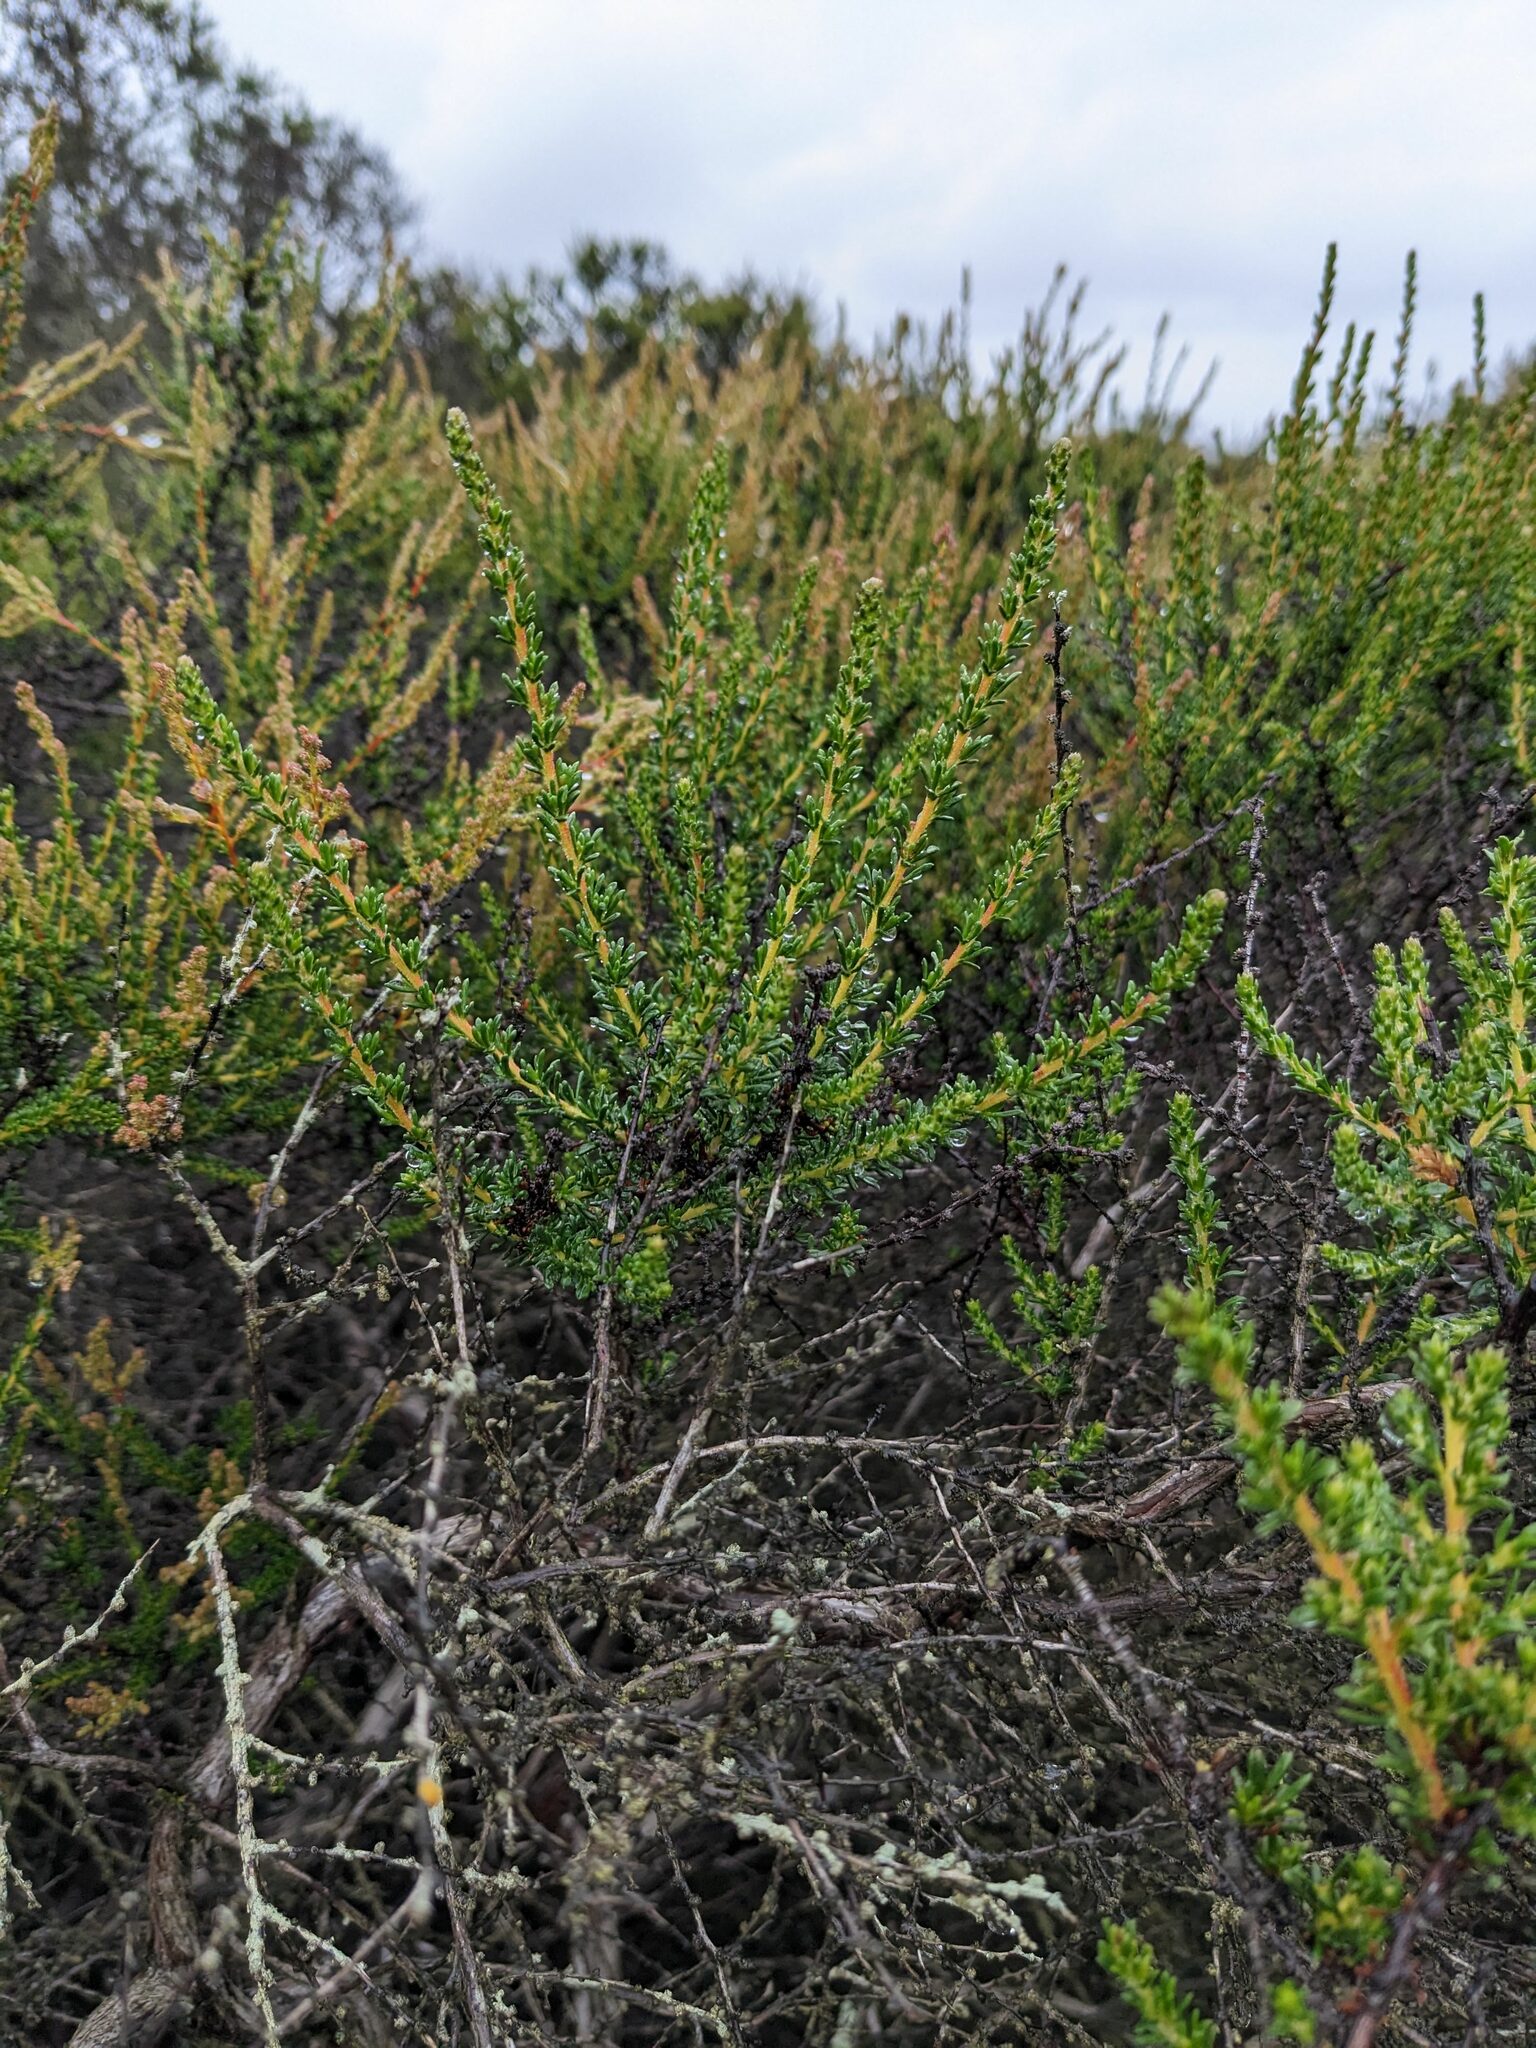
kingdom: Plantae
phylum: Tracheophyta
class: Magnoliopsida
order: Rosales
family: Rosaceae
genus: Adenostoma
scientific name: Adenostoma fasciculatum
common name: Chamise
